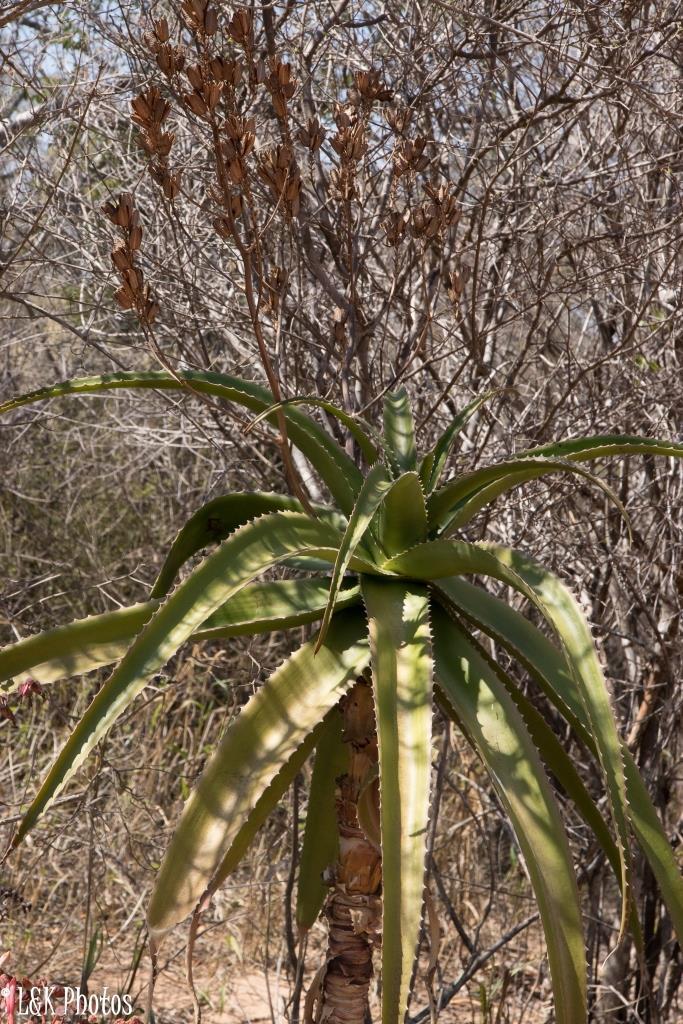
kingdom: Plantae
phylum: Tracheophyta
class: Liliopsida
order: Asparagales
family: Asphodelaceae
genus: Aloe
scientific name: Aloe vaombe
